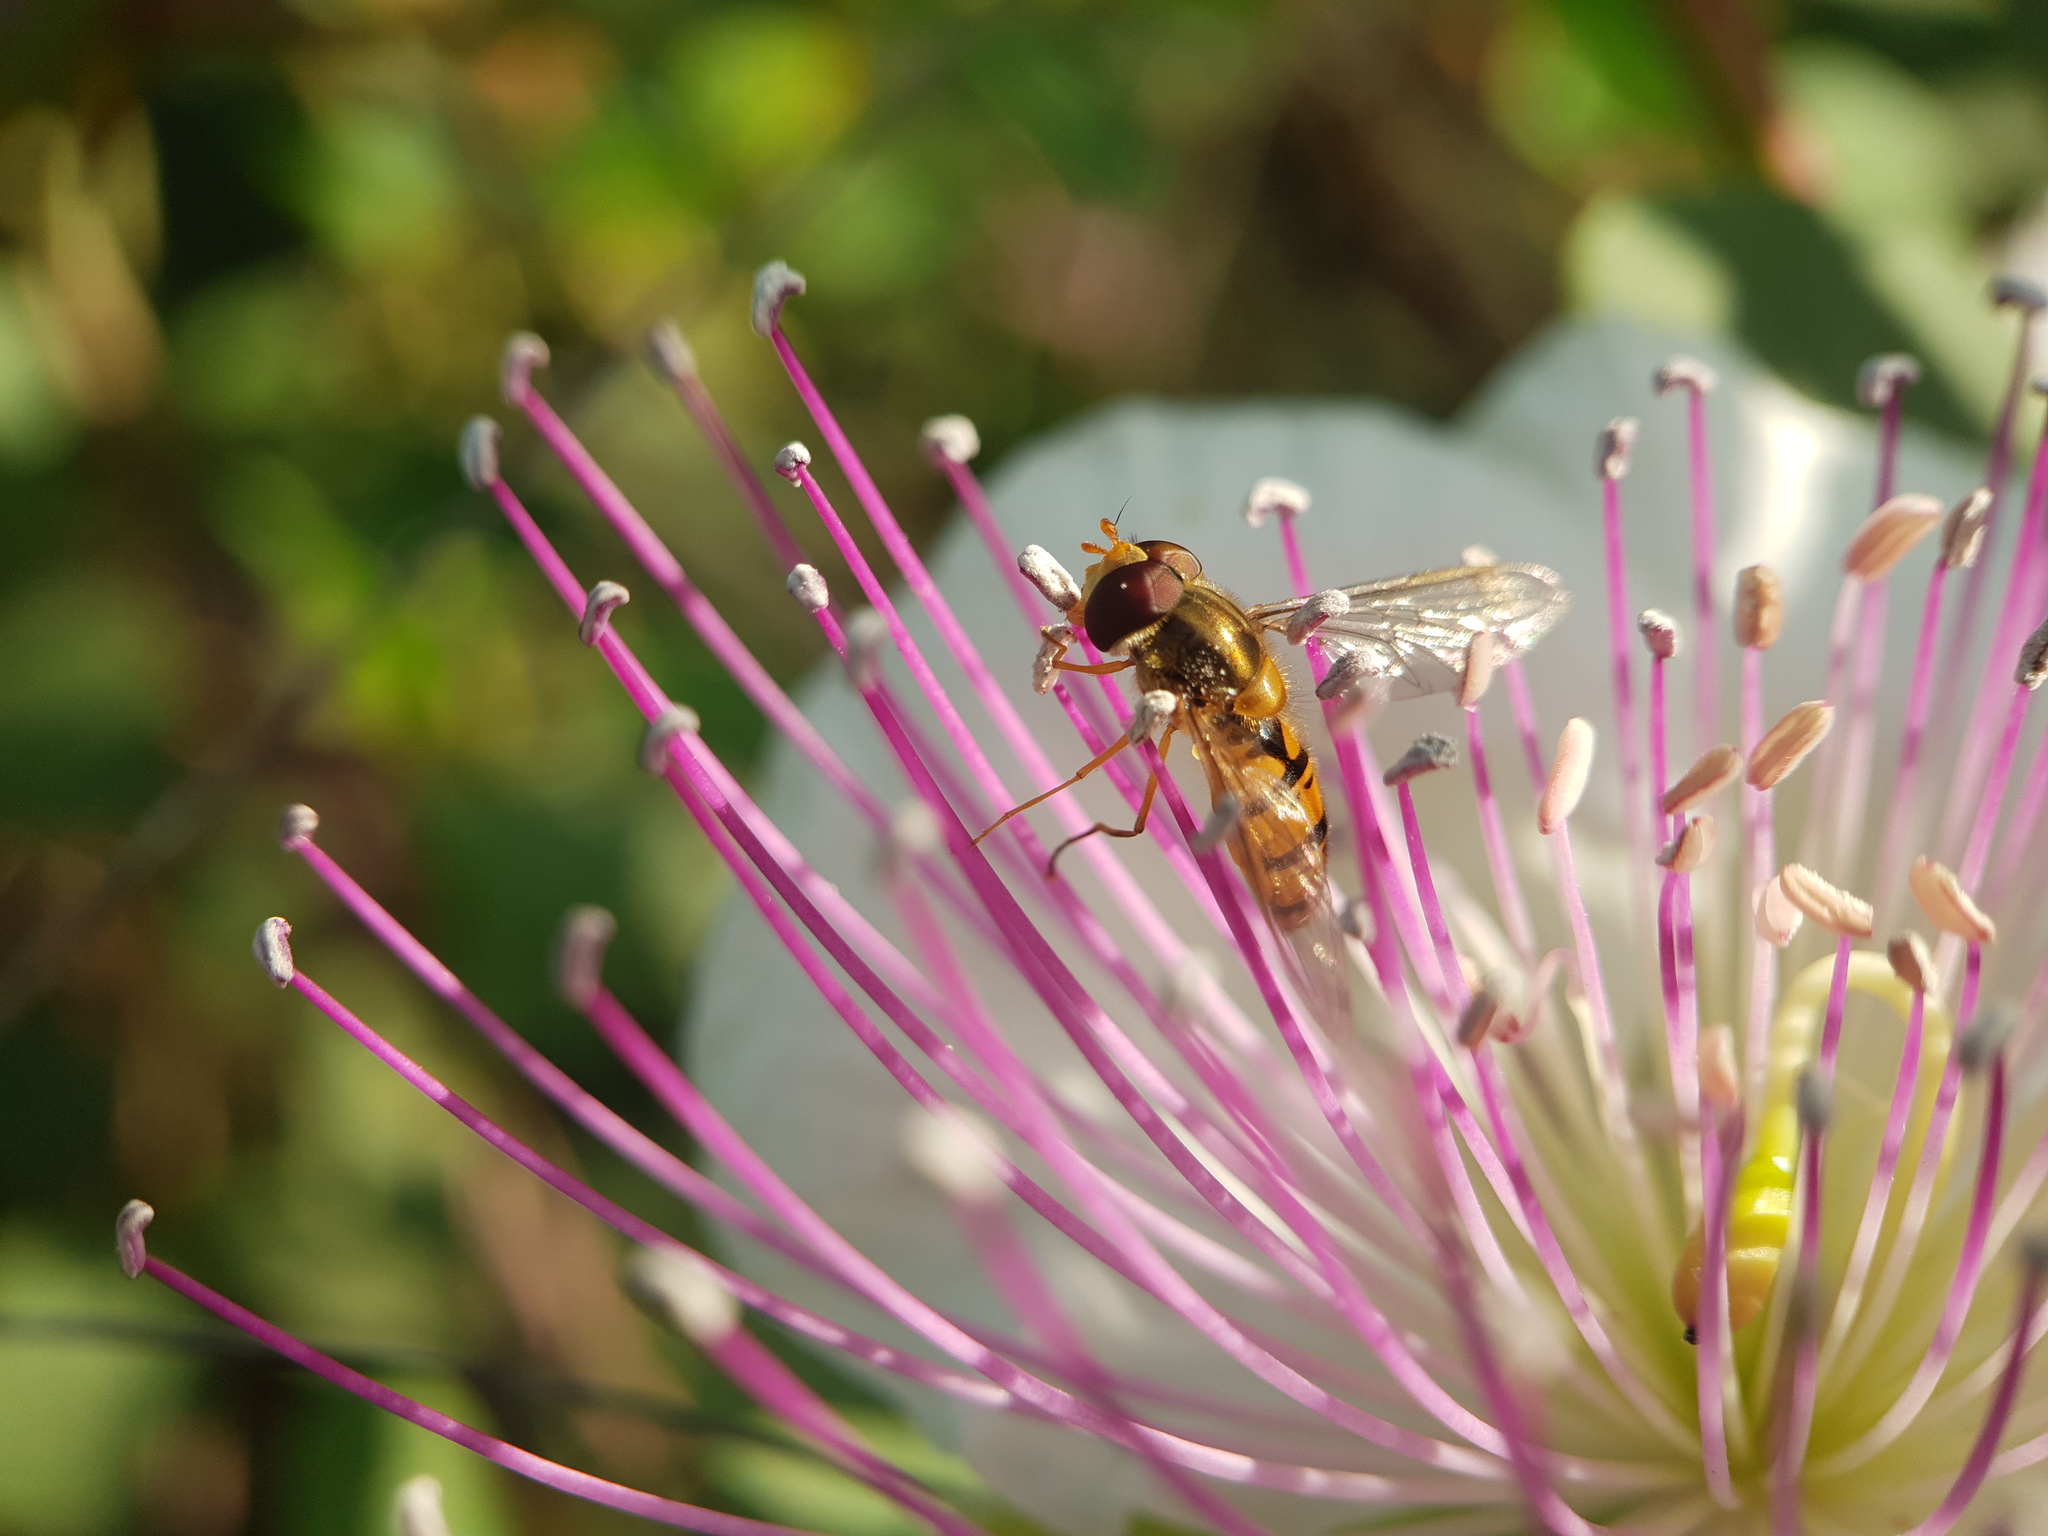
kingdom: Animalia
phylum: Arthropoda
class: Insecta
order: Diptera
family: Syrphidae
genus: Episyrphus
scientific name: Episyrphus balteatus
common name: Marmalade hoverfly
